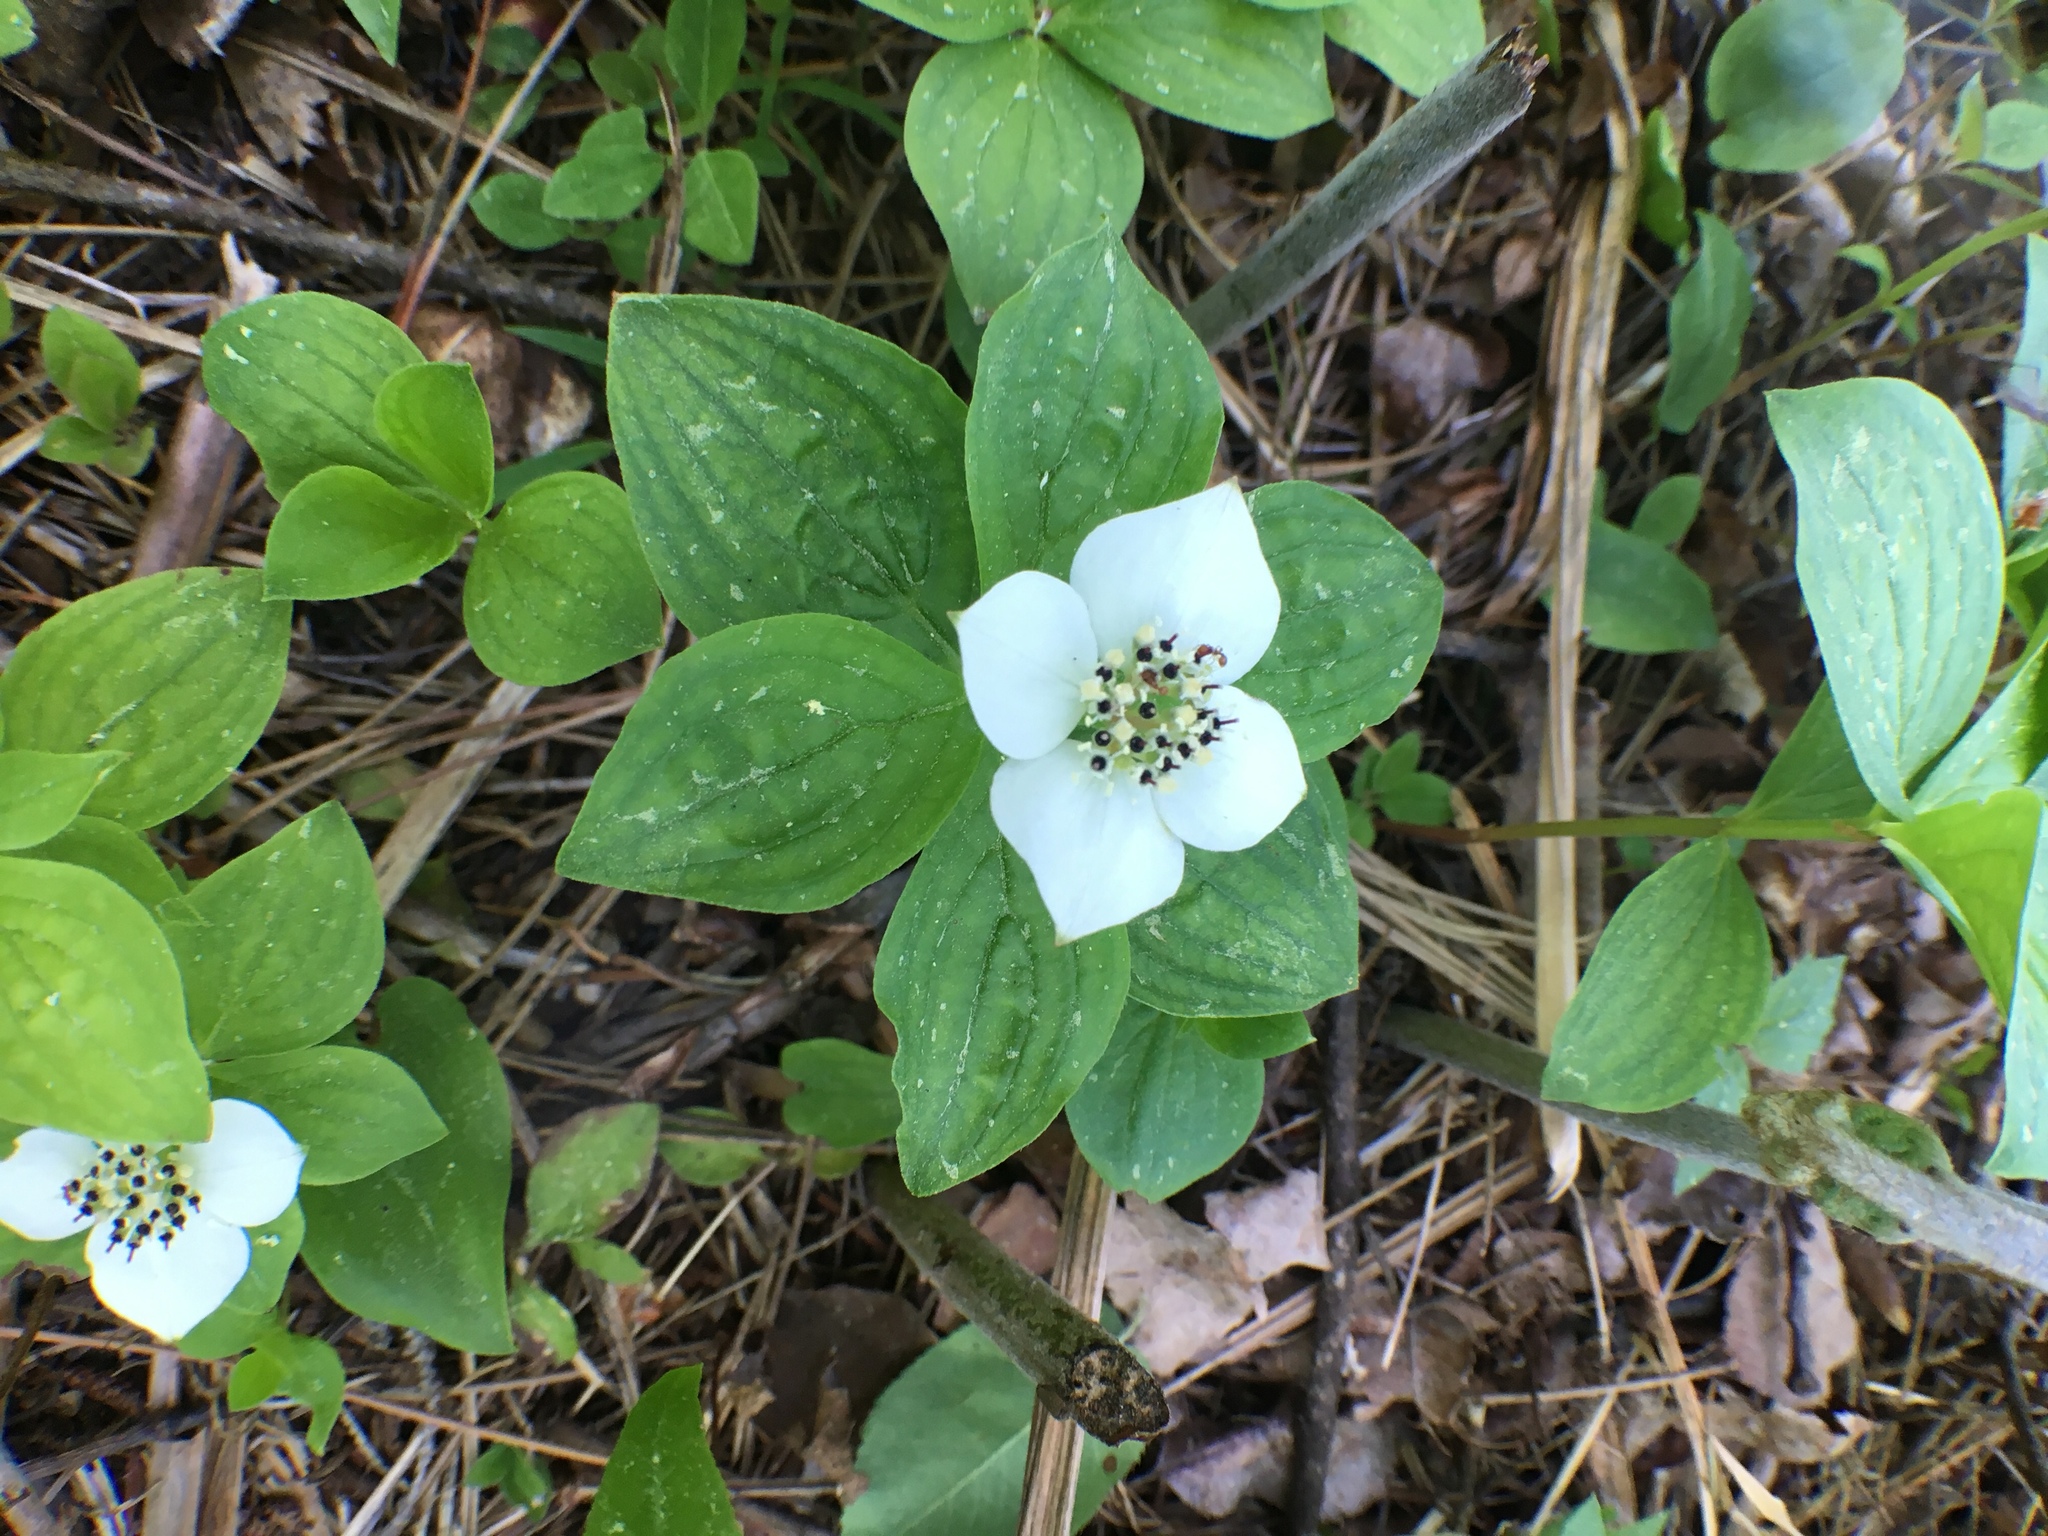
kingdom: Plantae
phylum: Tracheophyta
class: Magnoliopsida
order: Cornales
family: Cornaceae
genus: Cornus
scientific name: Cornus canadensis
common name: Creeping dogwood
